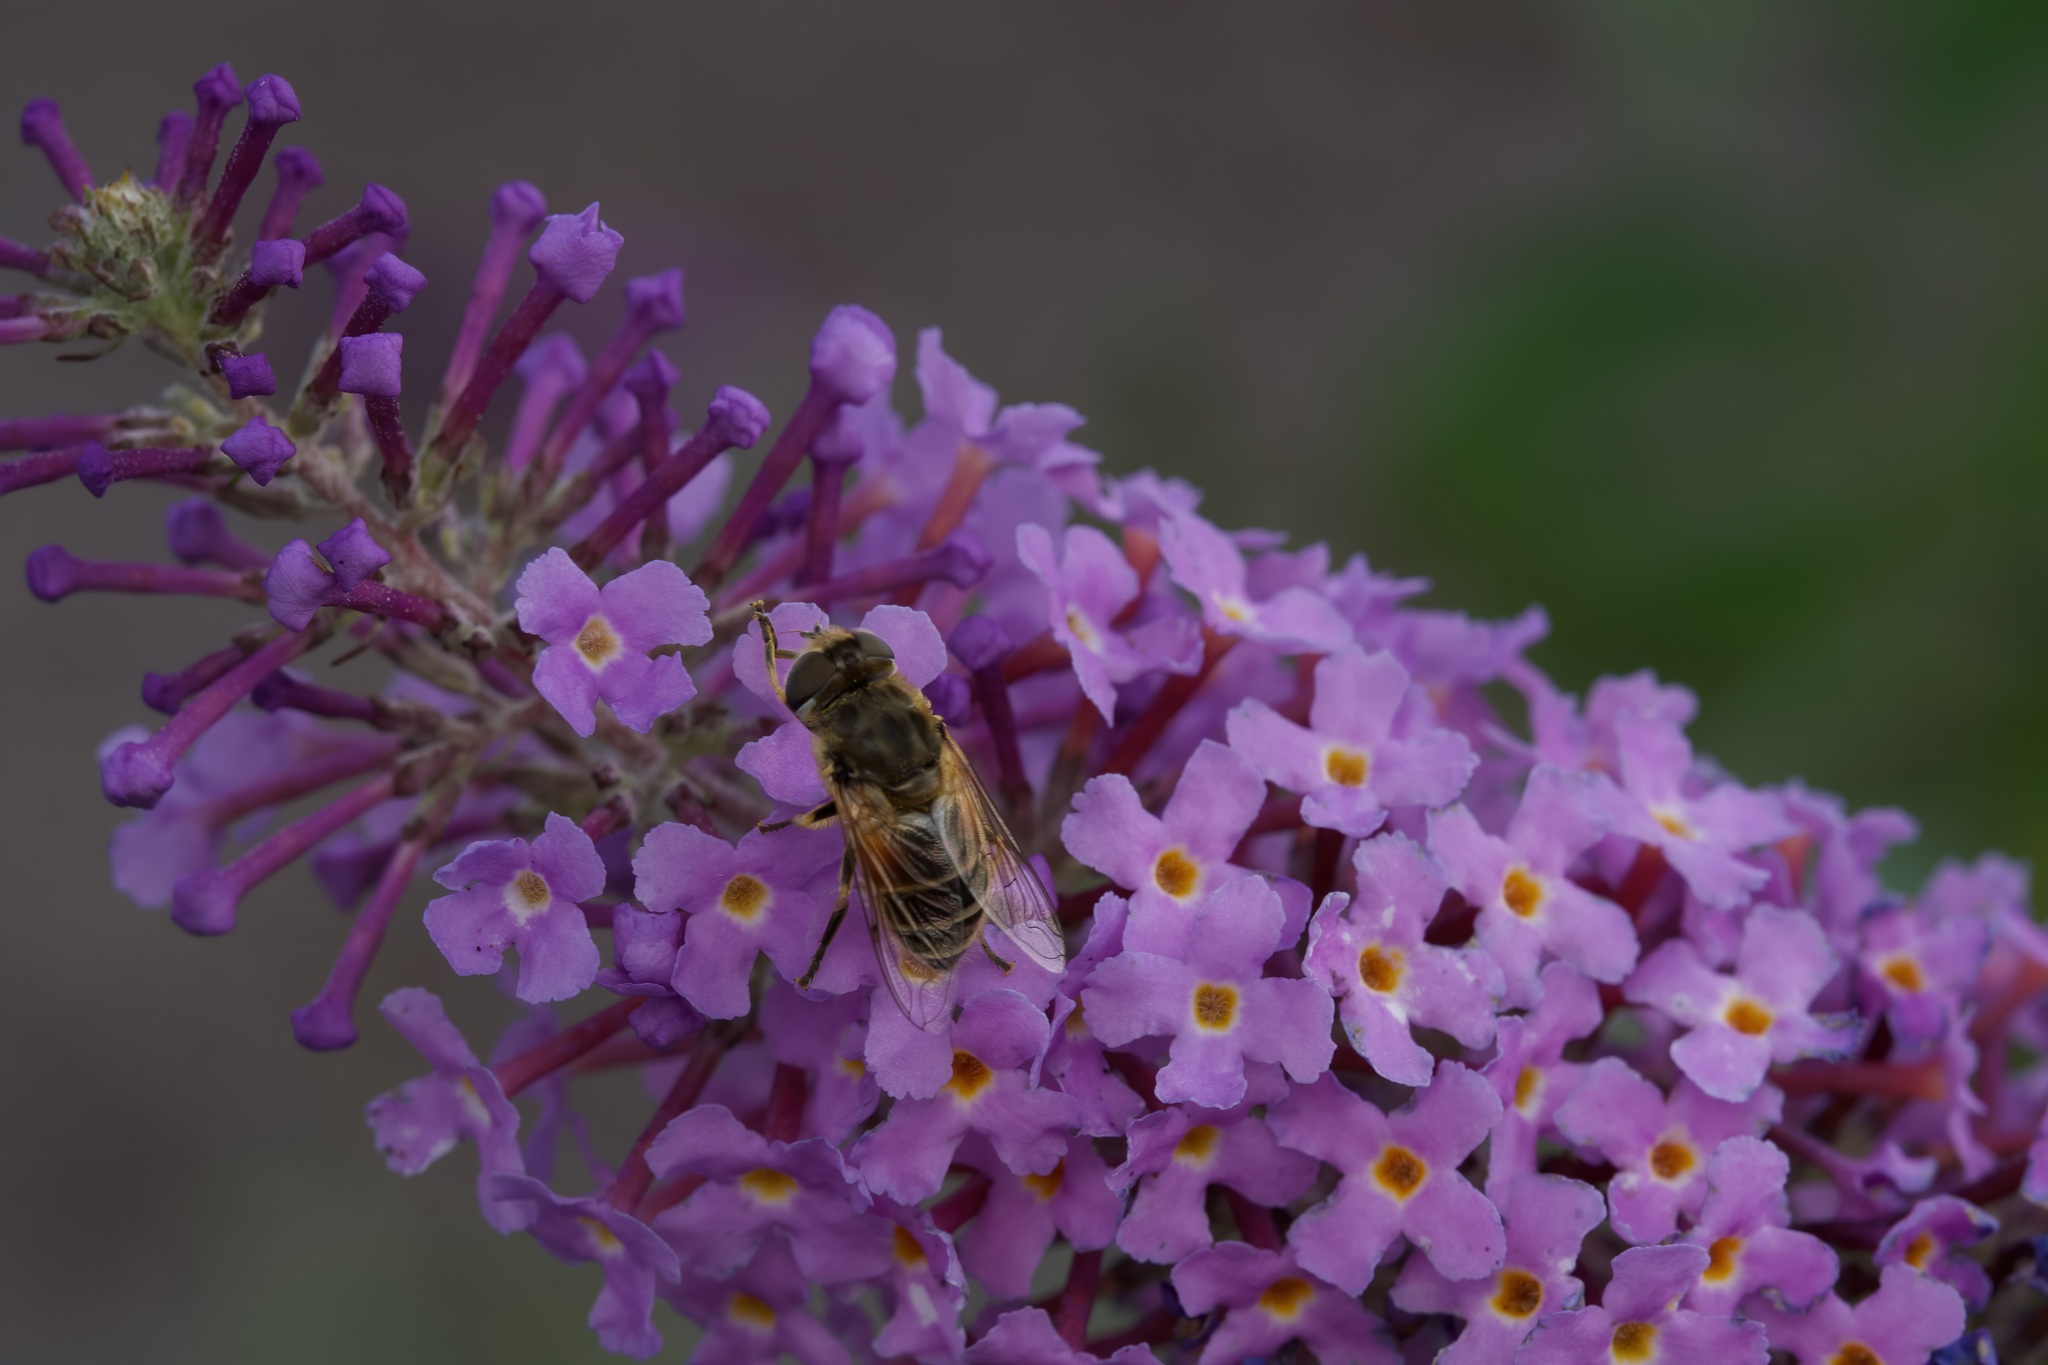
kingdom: Animalia
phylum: Arthropoda
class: Insecta
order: Diptera
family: Syrphidae
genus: Eristalis
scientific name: Eristalis arbustorum
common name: Hover fly
